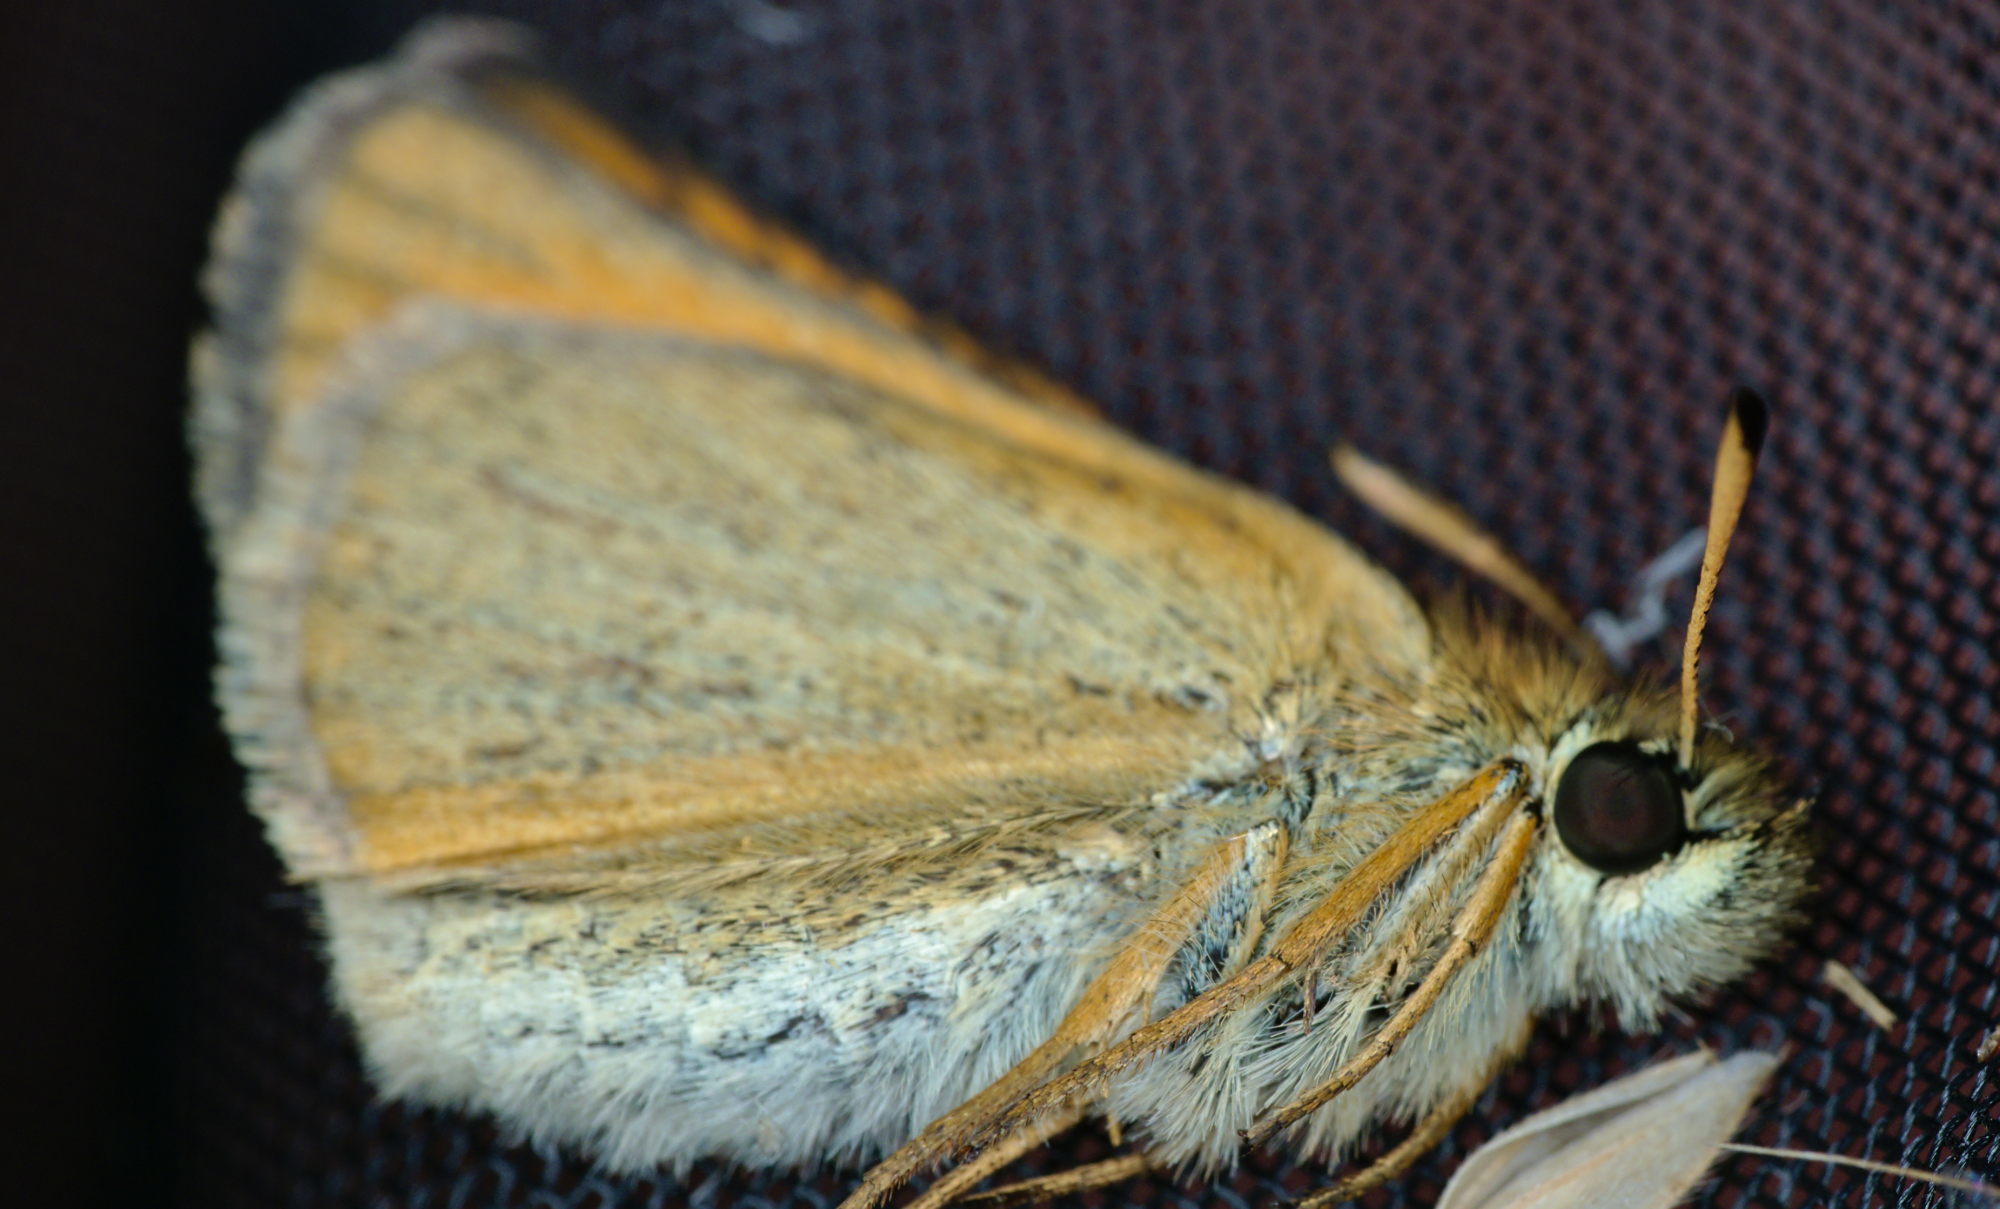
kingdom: Animalia
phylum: Arthropoda
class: Insecta
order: Lepidoptera
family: Hesperiidae
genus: Thymelicus
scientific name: Thymelicus lineola
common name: Essex skipper
